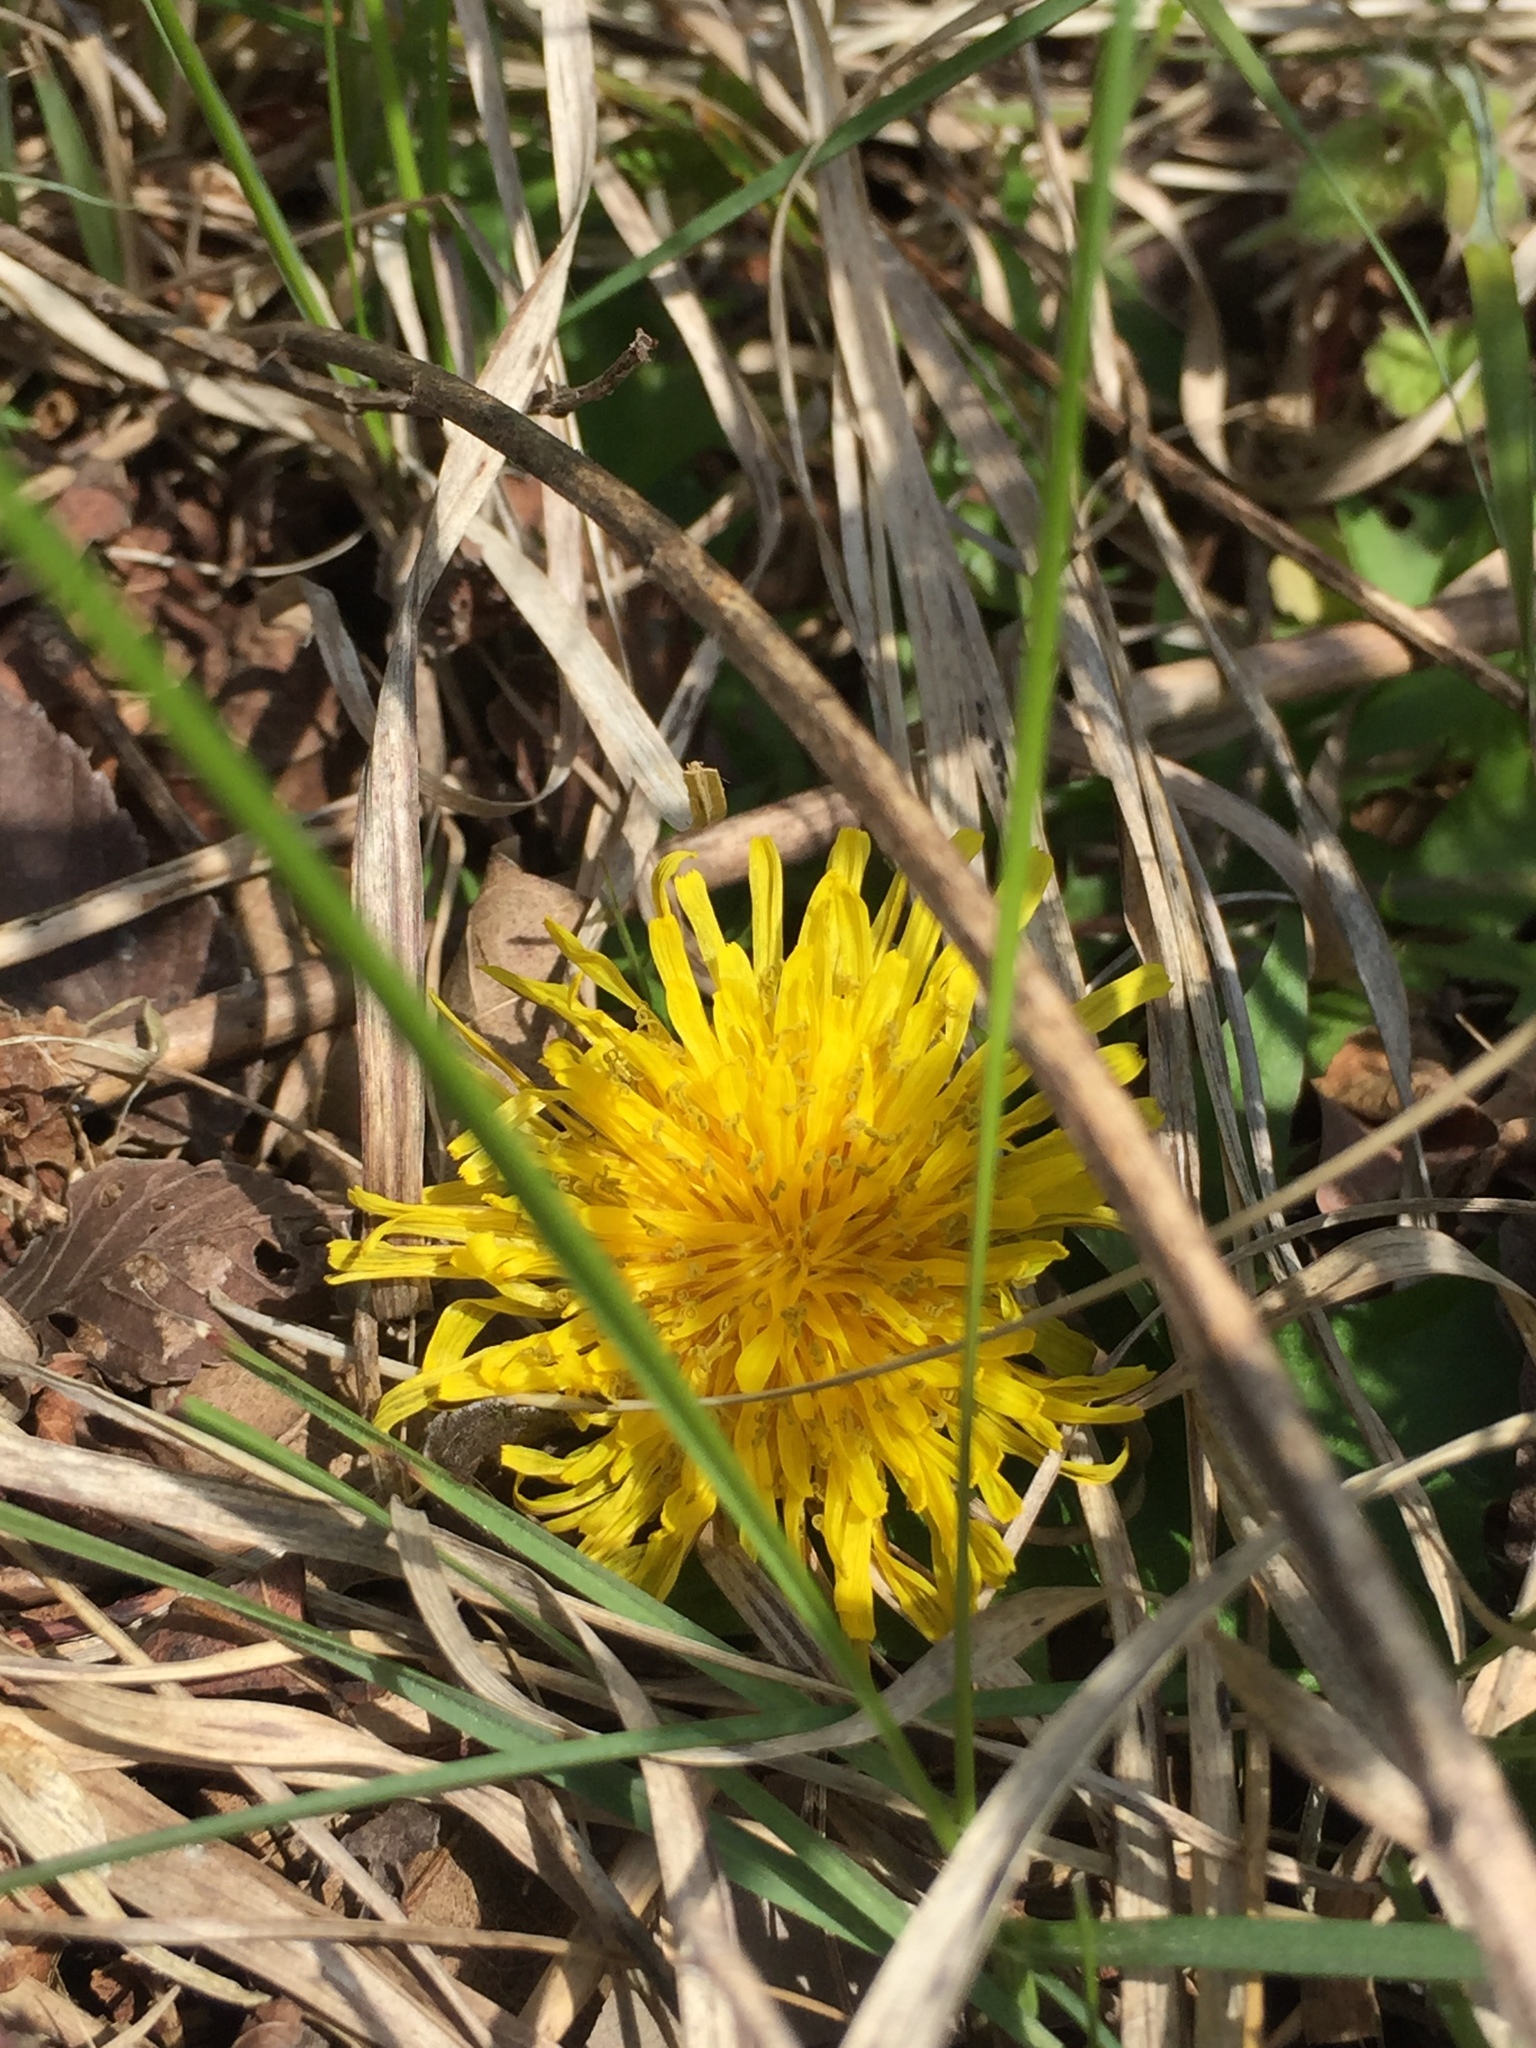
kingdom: Plantae
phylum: Tracheophyta
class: Magnoliopsida
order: Asterales
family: Asteraceae
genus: Taraxacum
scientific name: Taraxacum
